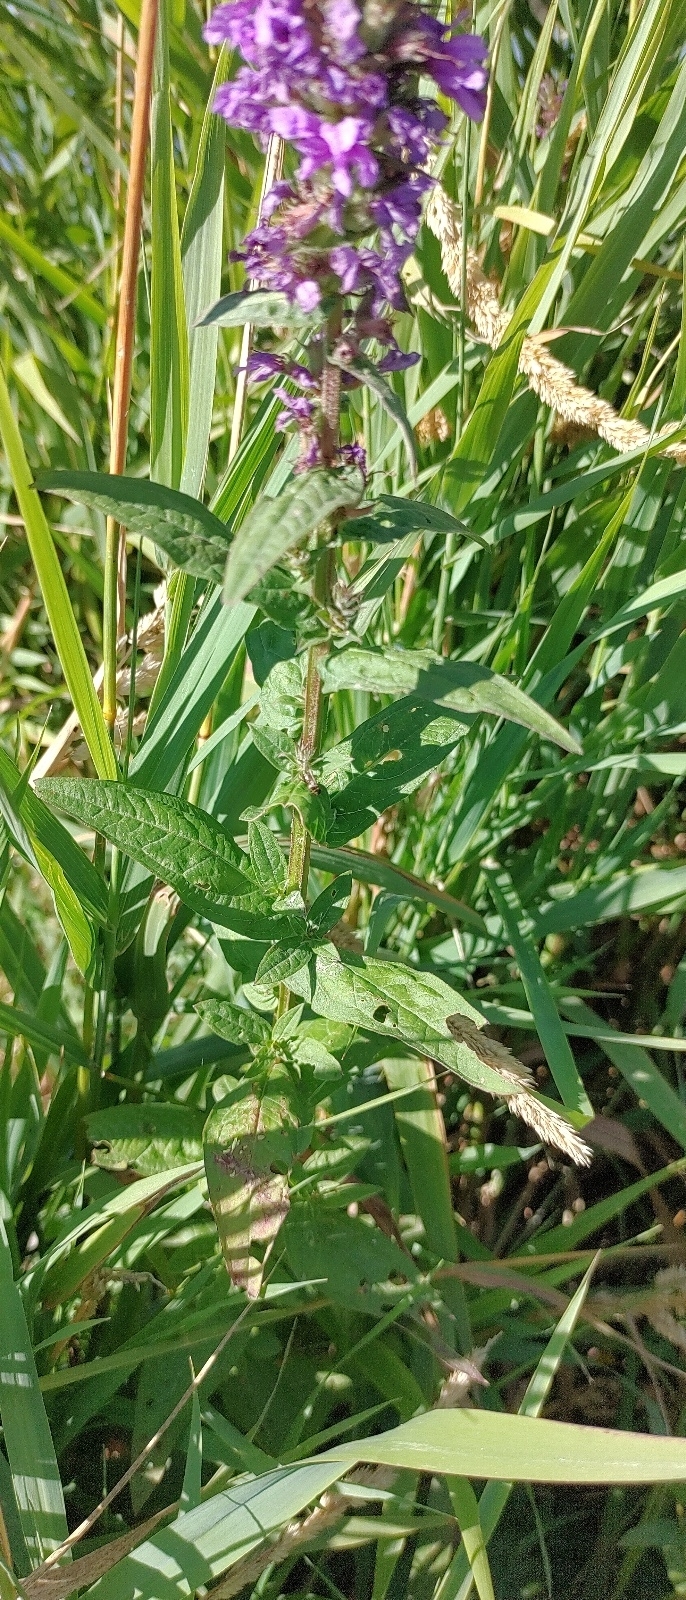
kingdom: Plantae
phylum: Tracheophyta
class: Magnoliopsida
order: Myrtales
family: Lythraceae
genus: Lythrum
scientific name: Lythrum salicaria
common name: Purple loosestrife
